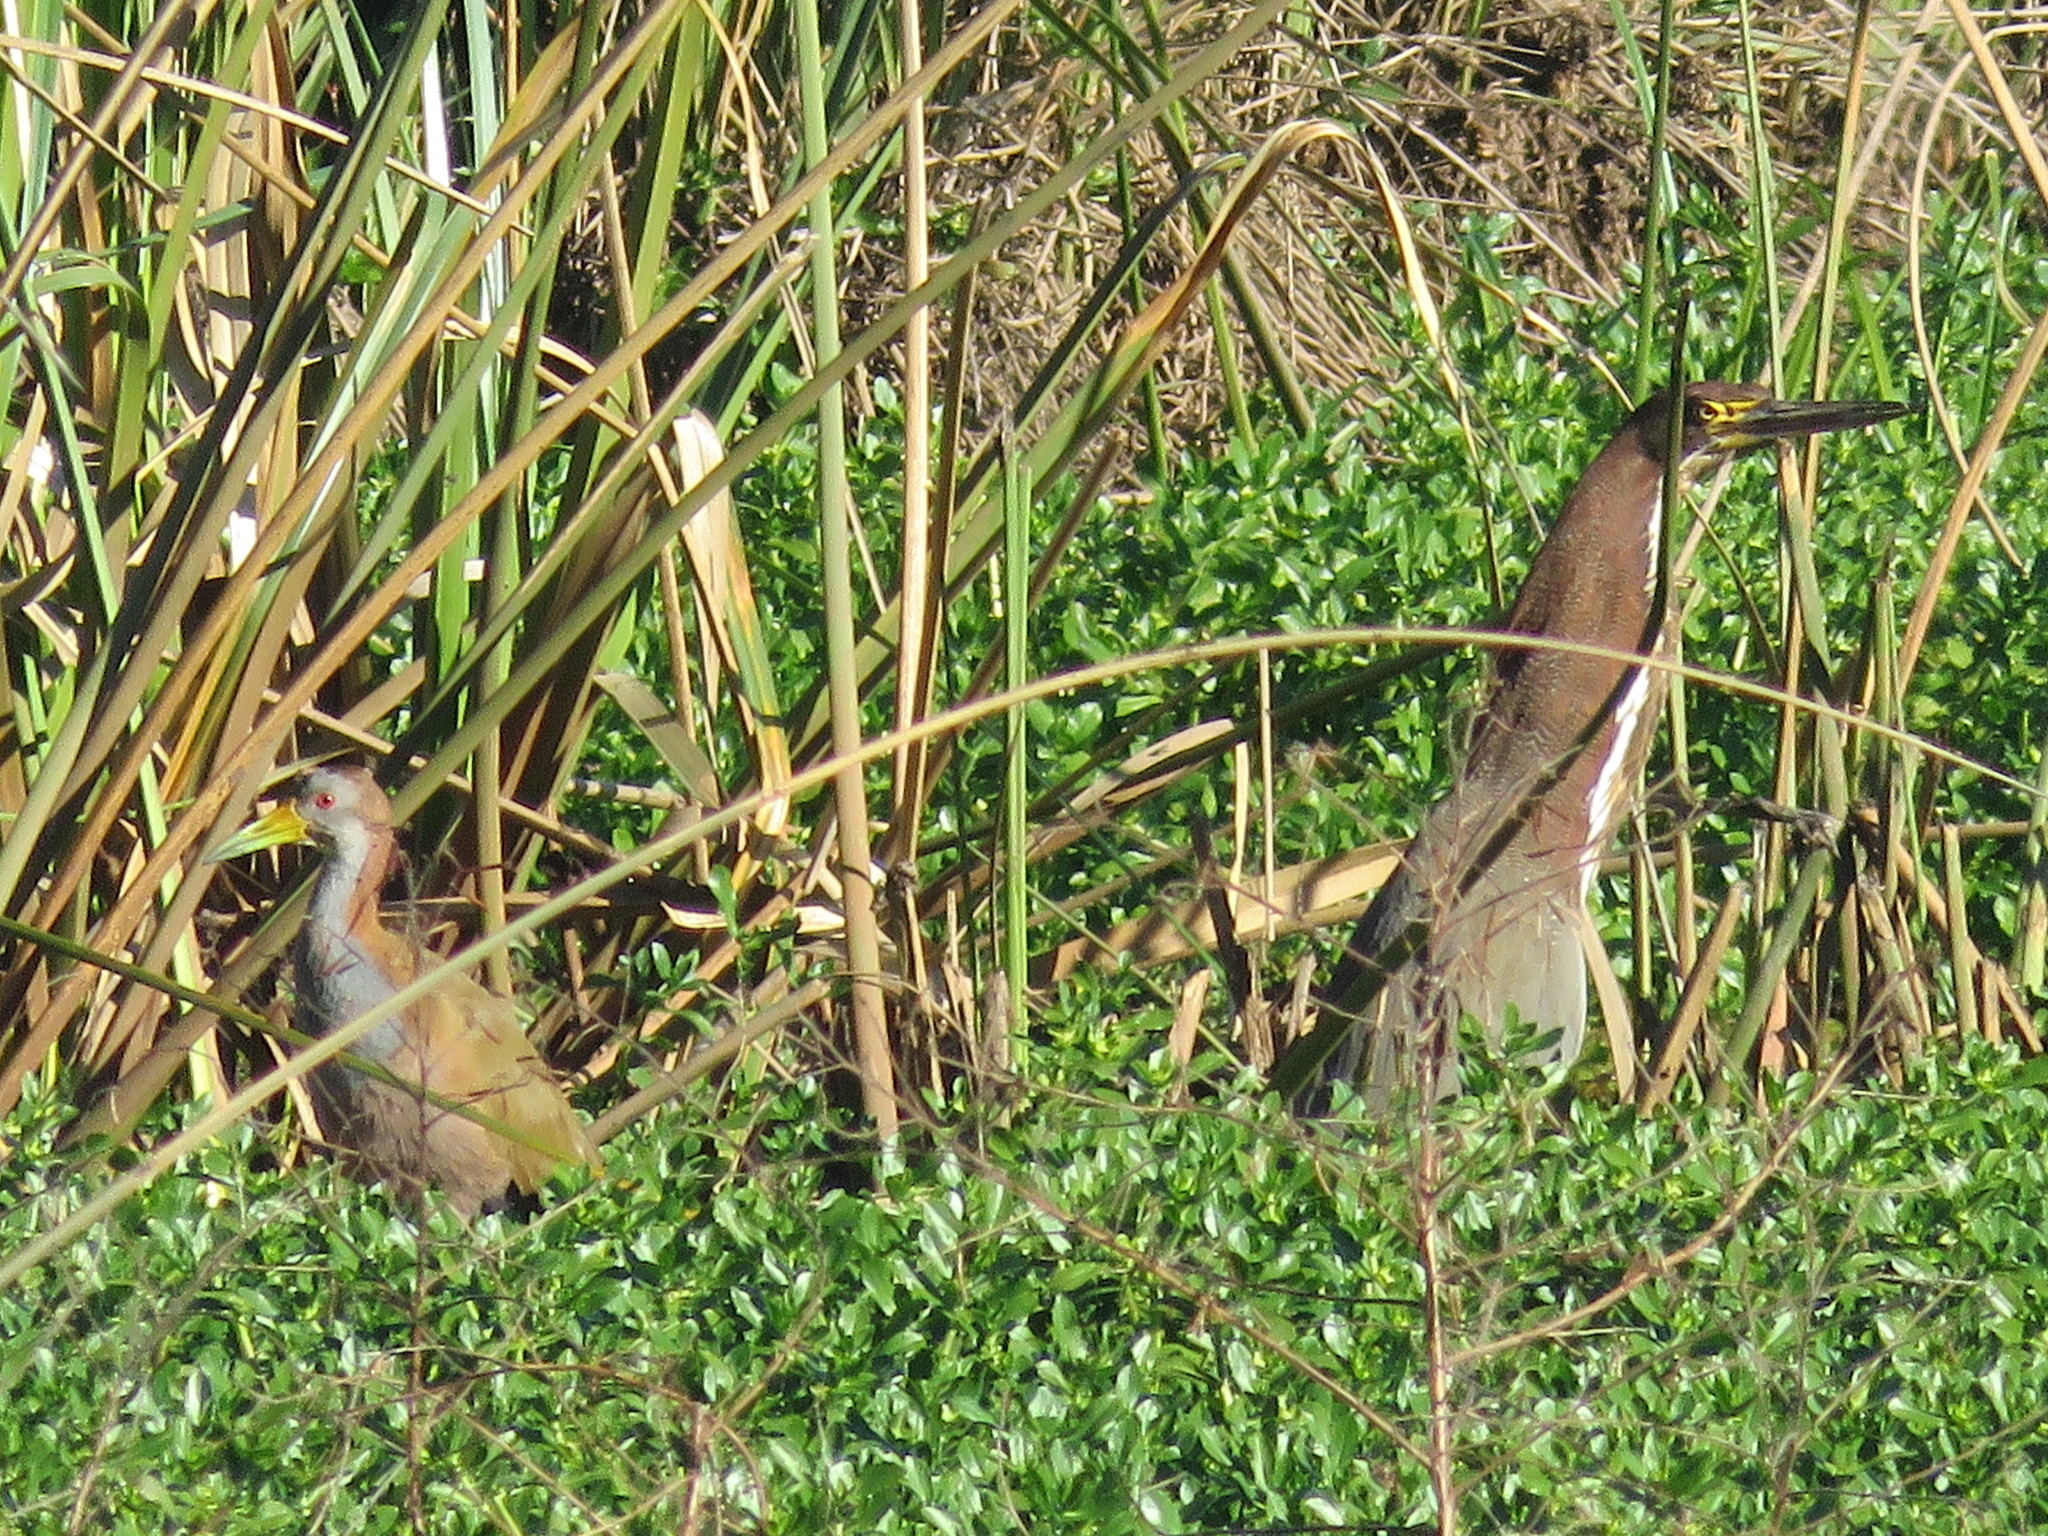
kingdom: Animalia
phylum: Chordata
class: Aves
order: Gruiformes
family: Rallidae
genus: Aramides
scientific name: Aramides ypecaha
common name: Giant wood rail
